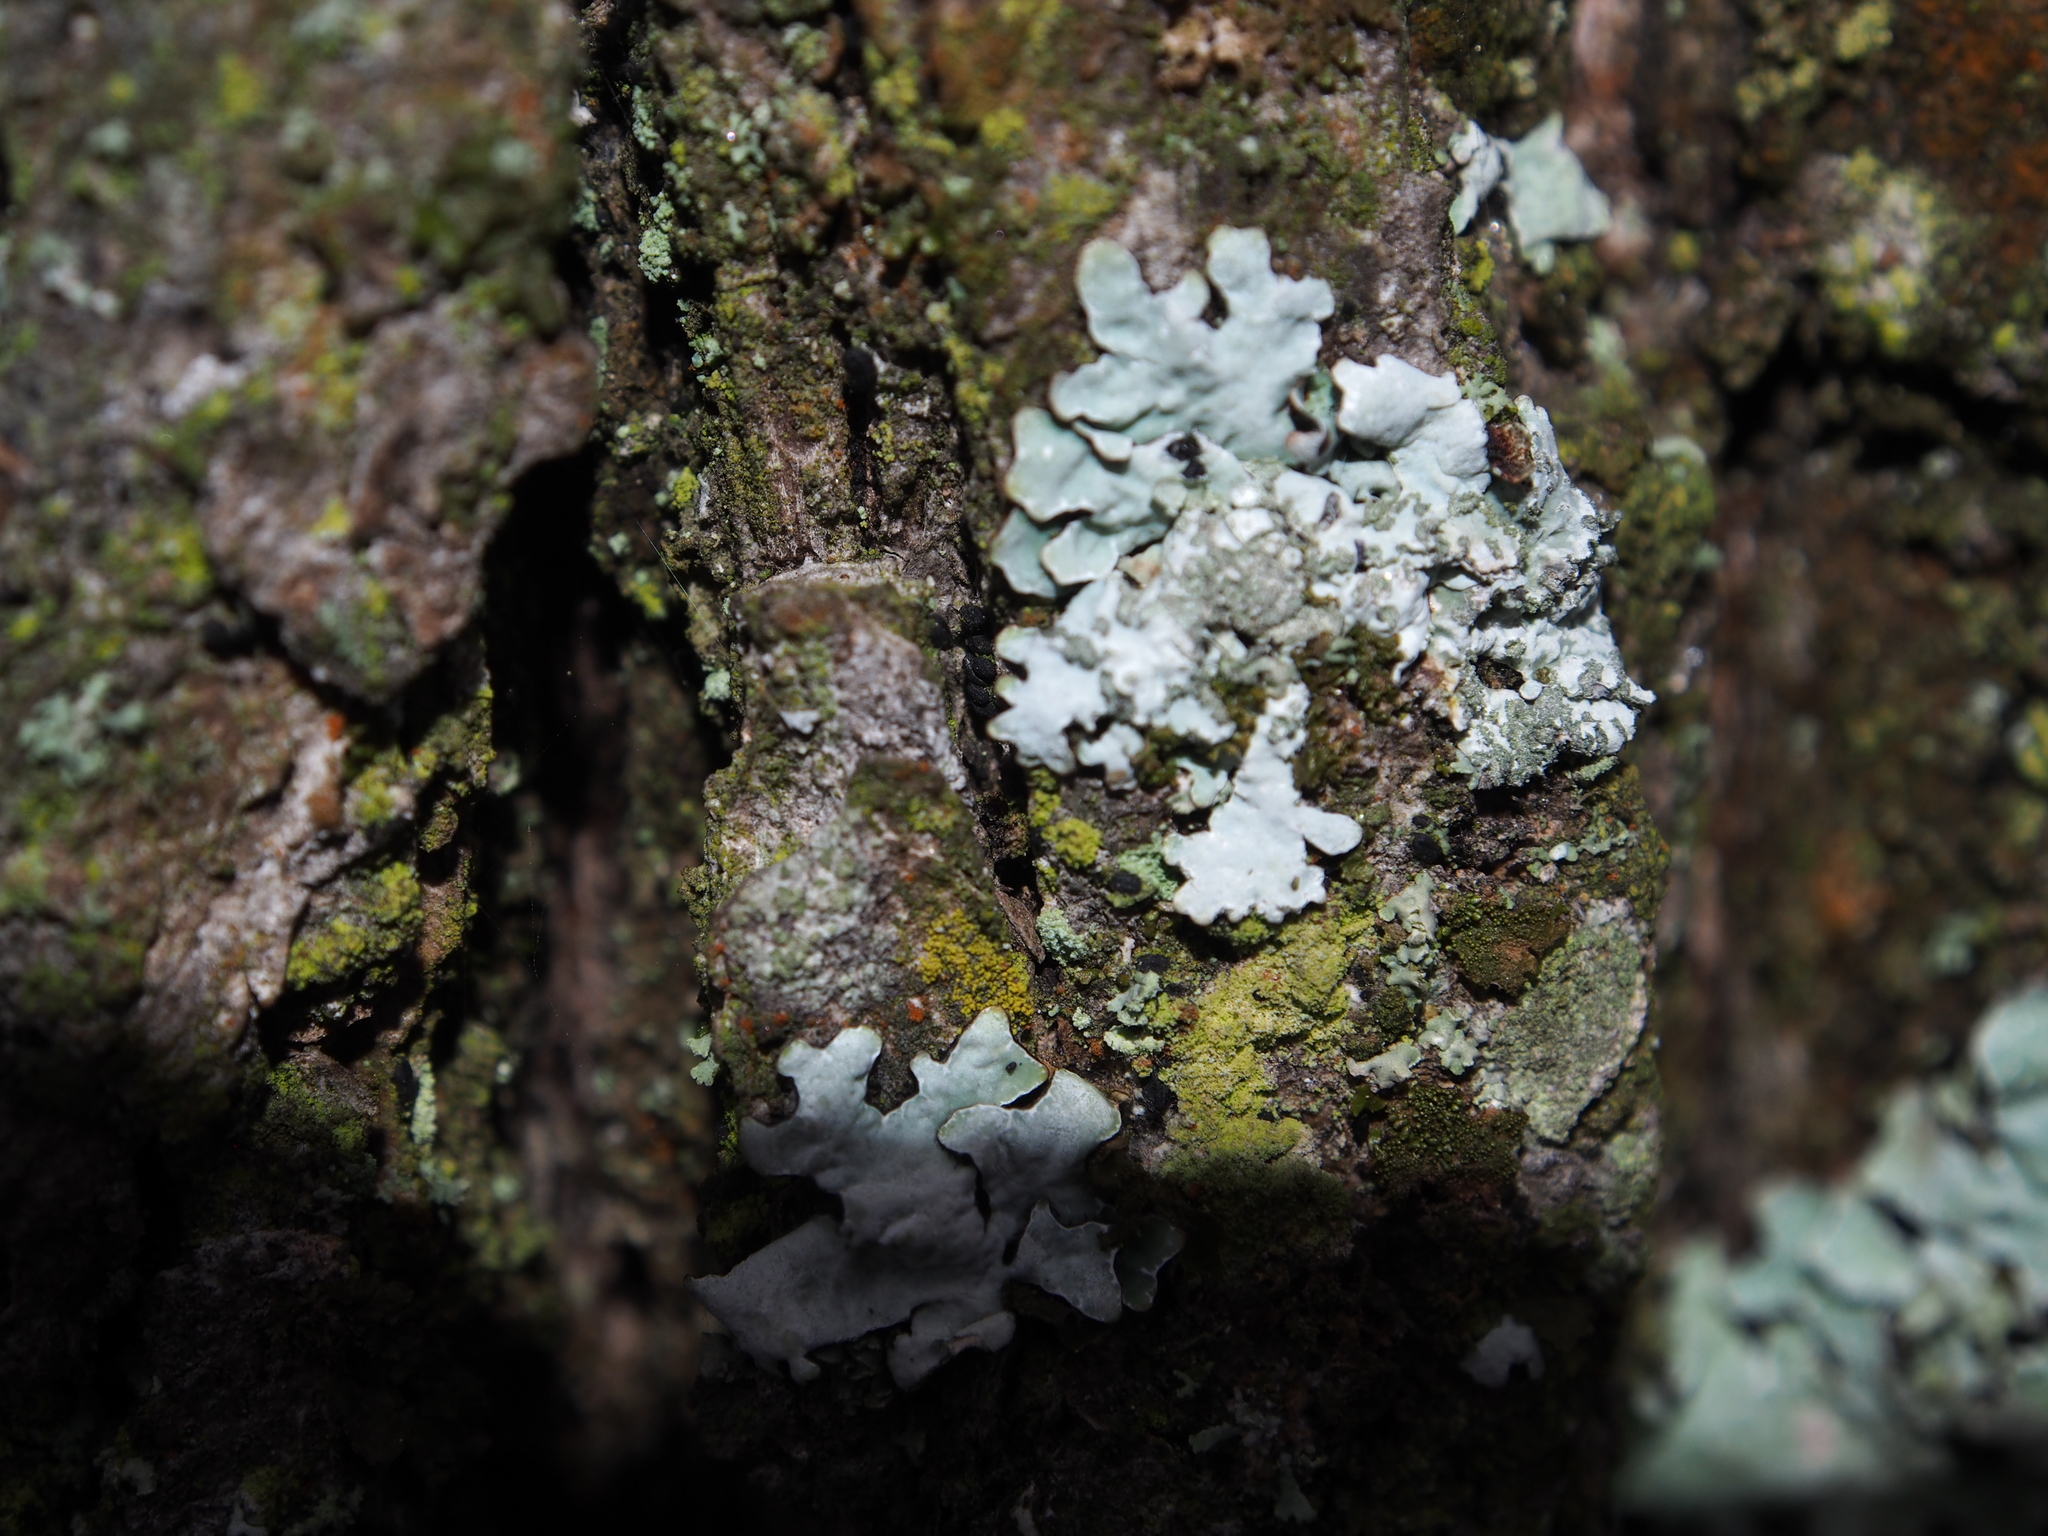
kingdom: Fungi
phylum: Ascomycota
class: Lecanoromycetes
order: Lecanorales
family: Parmeliaceae
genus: Parmelia
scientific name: Parmelia sulcata
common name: Netted shield lichen
